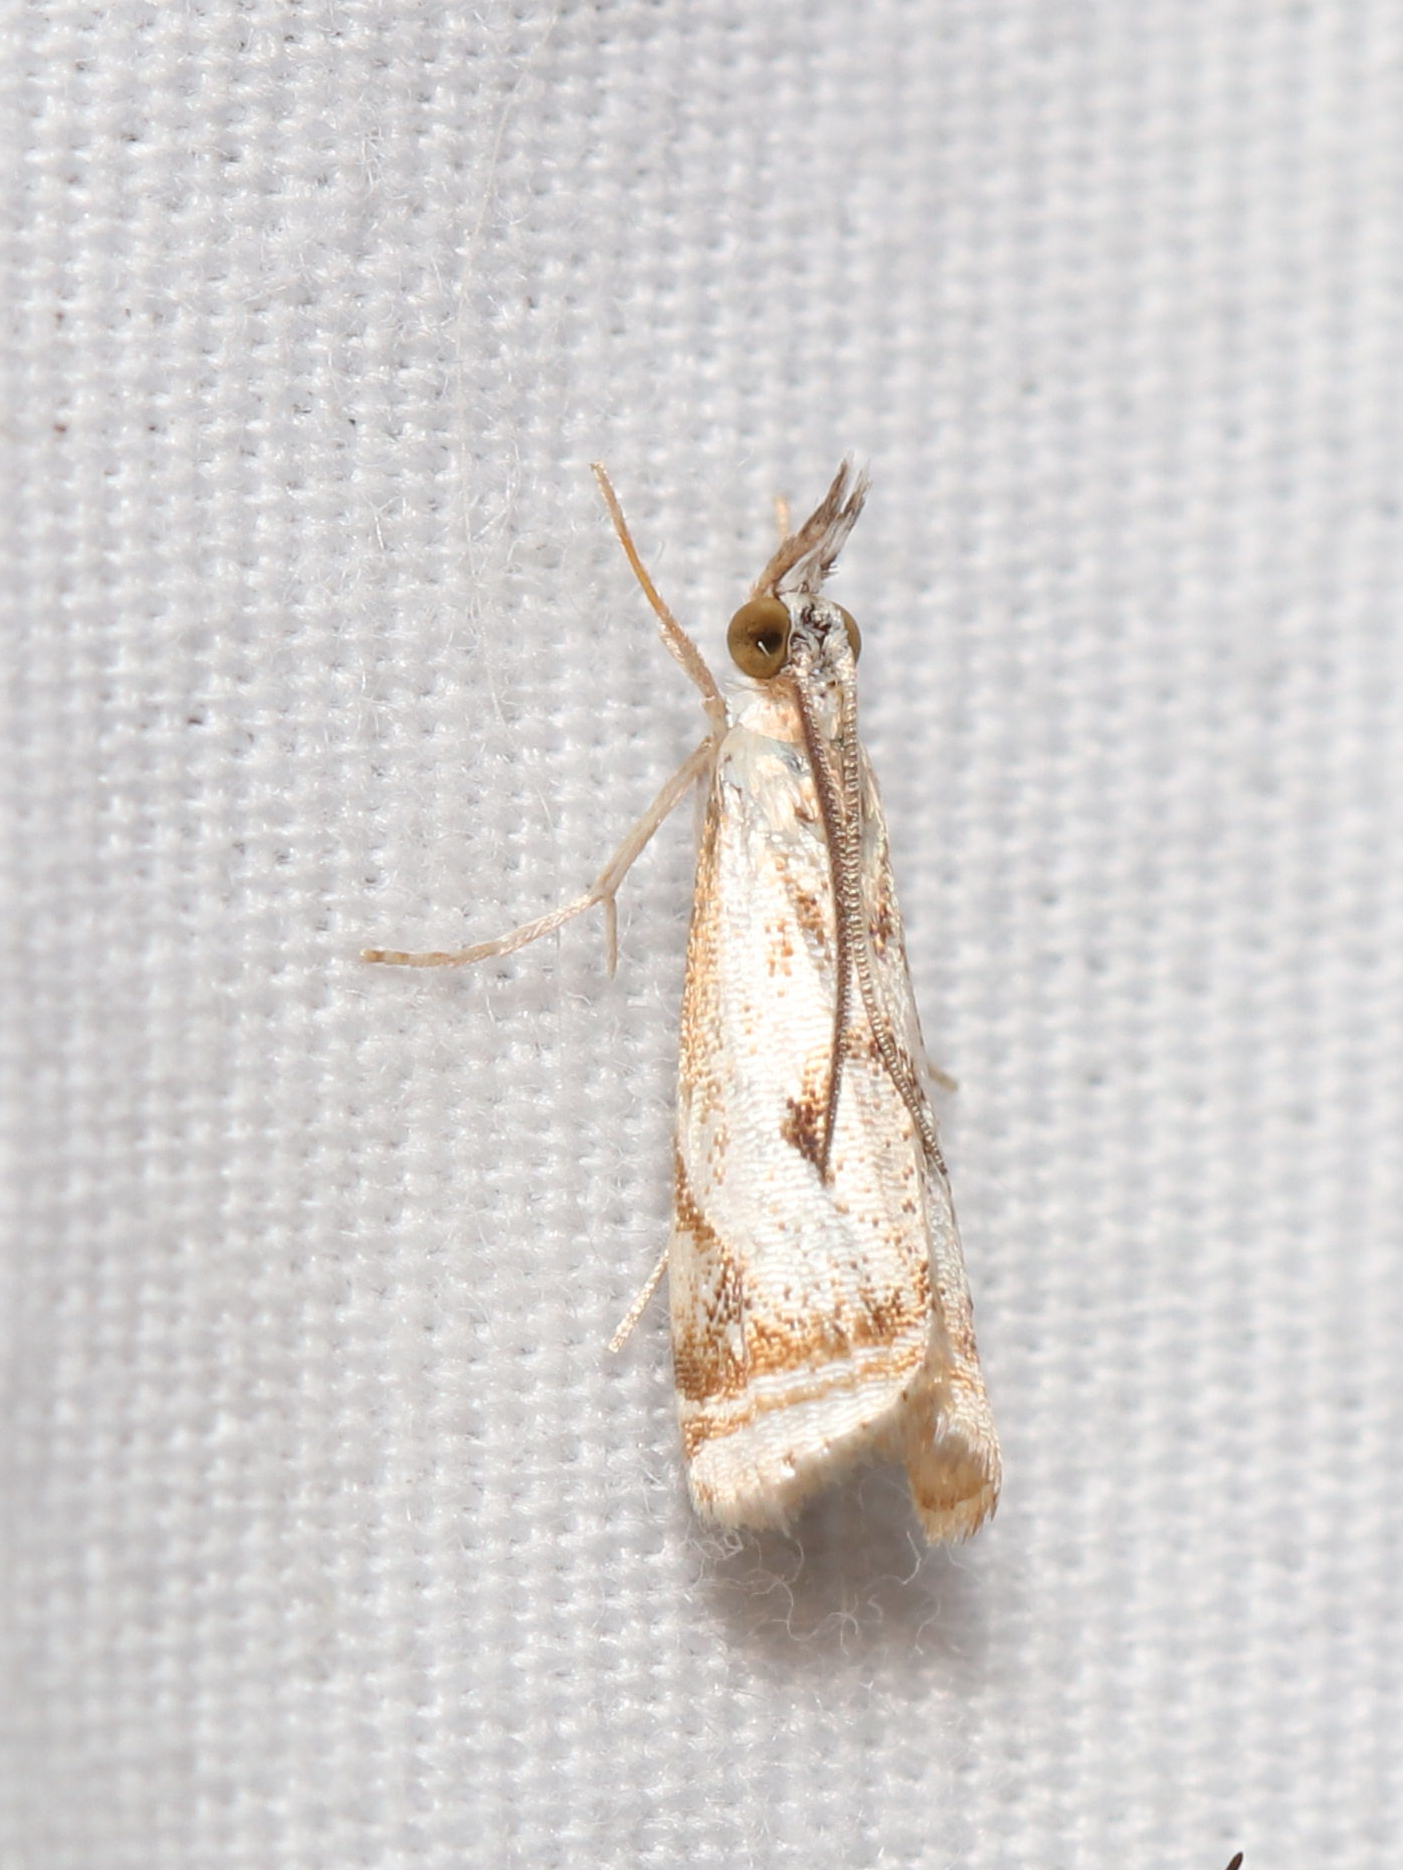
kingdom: Animalia
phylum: Arthropoda
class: Insecta
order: Lepidoptera
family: Crambidae
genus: Microcrambus
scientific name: Microcrambus elegans
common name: Elegant grass-veneer
